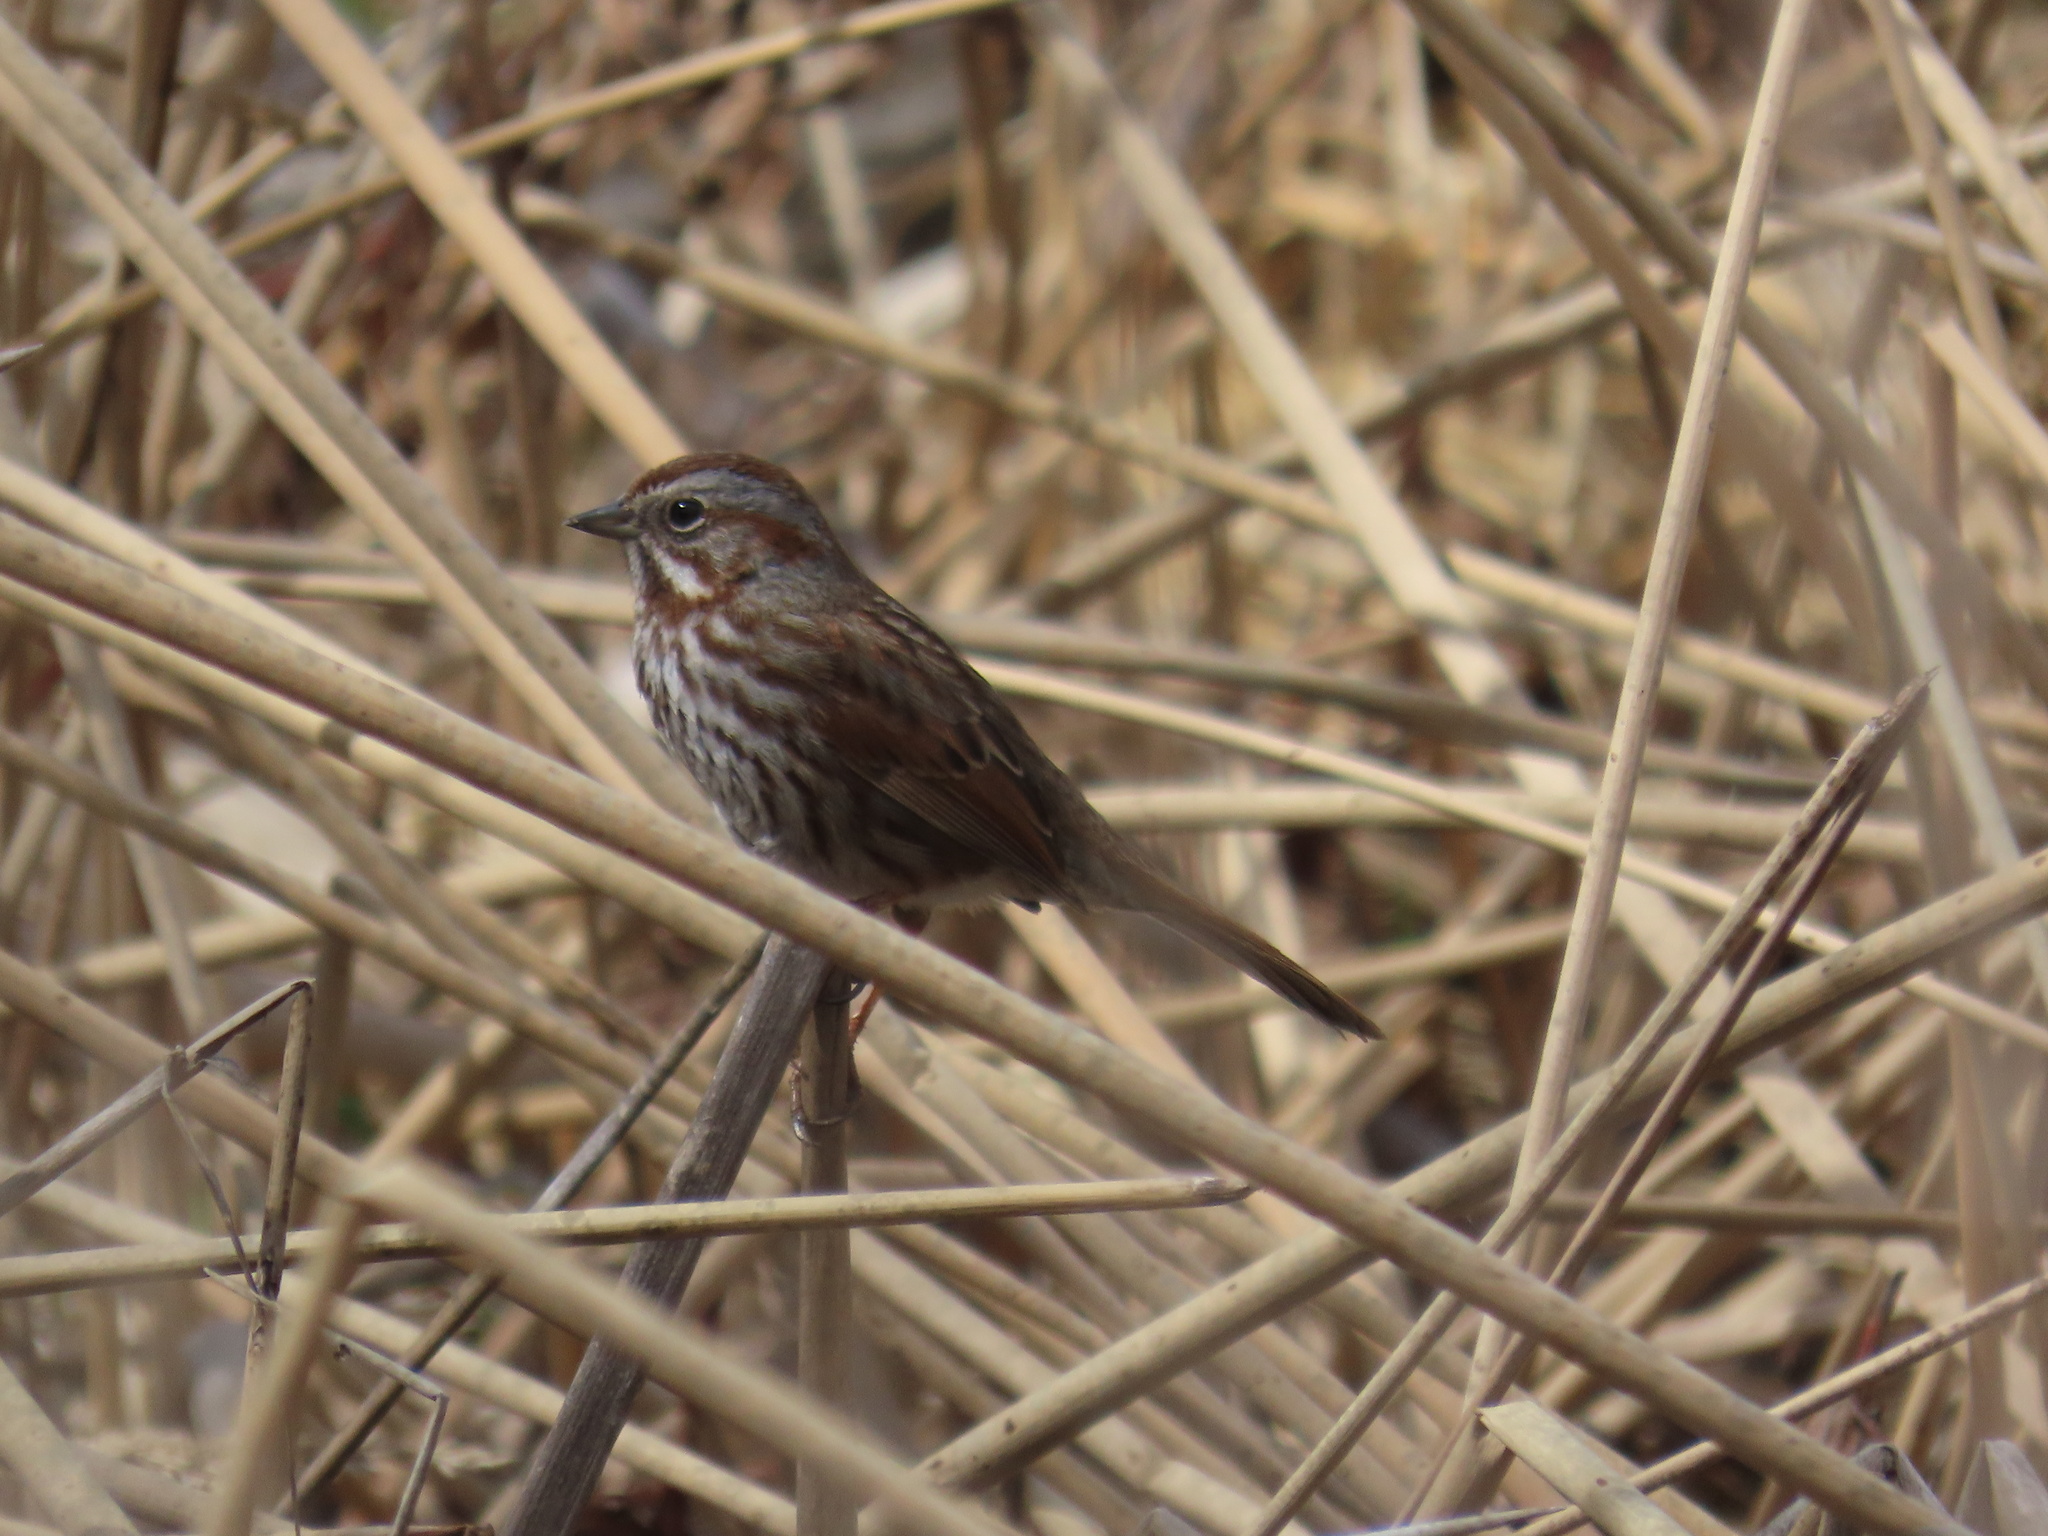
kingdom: Animalia
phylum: Chordata
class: Aves
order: Passeriformes
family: Passerellidae
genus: Melospiza
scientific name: Melospiza melodia
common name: Song sparrow
